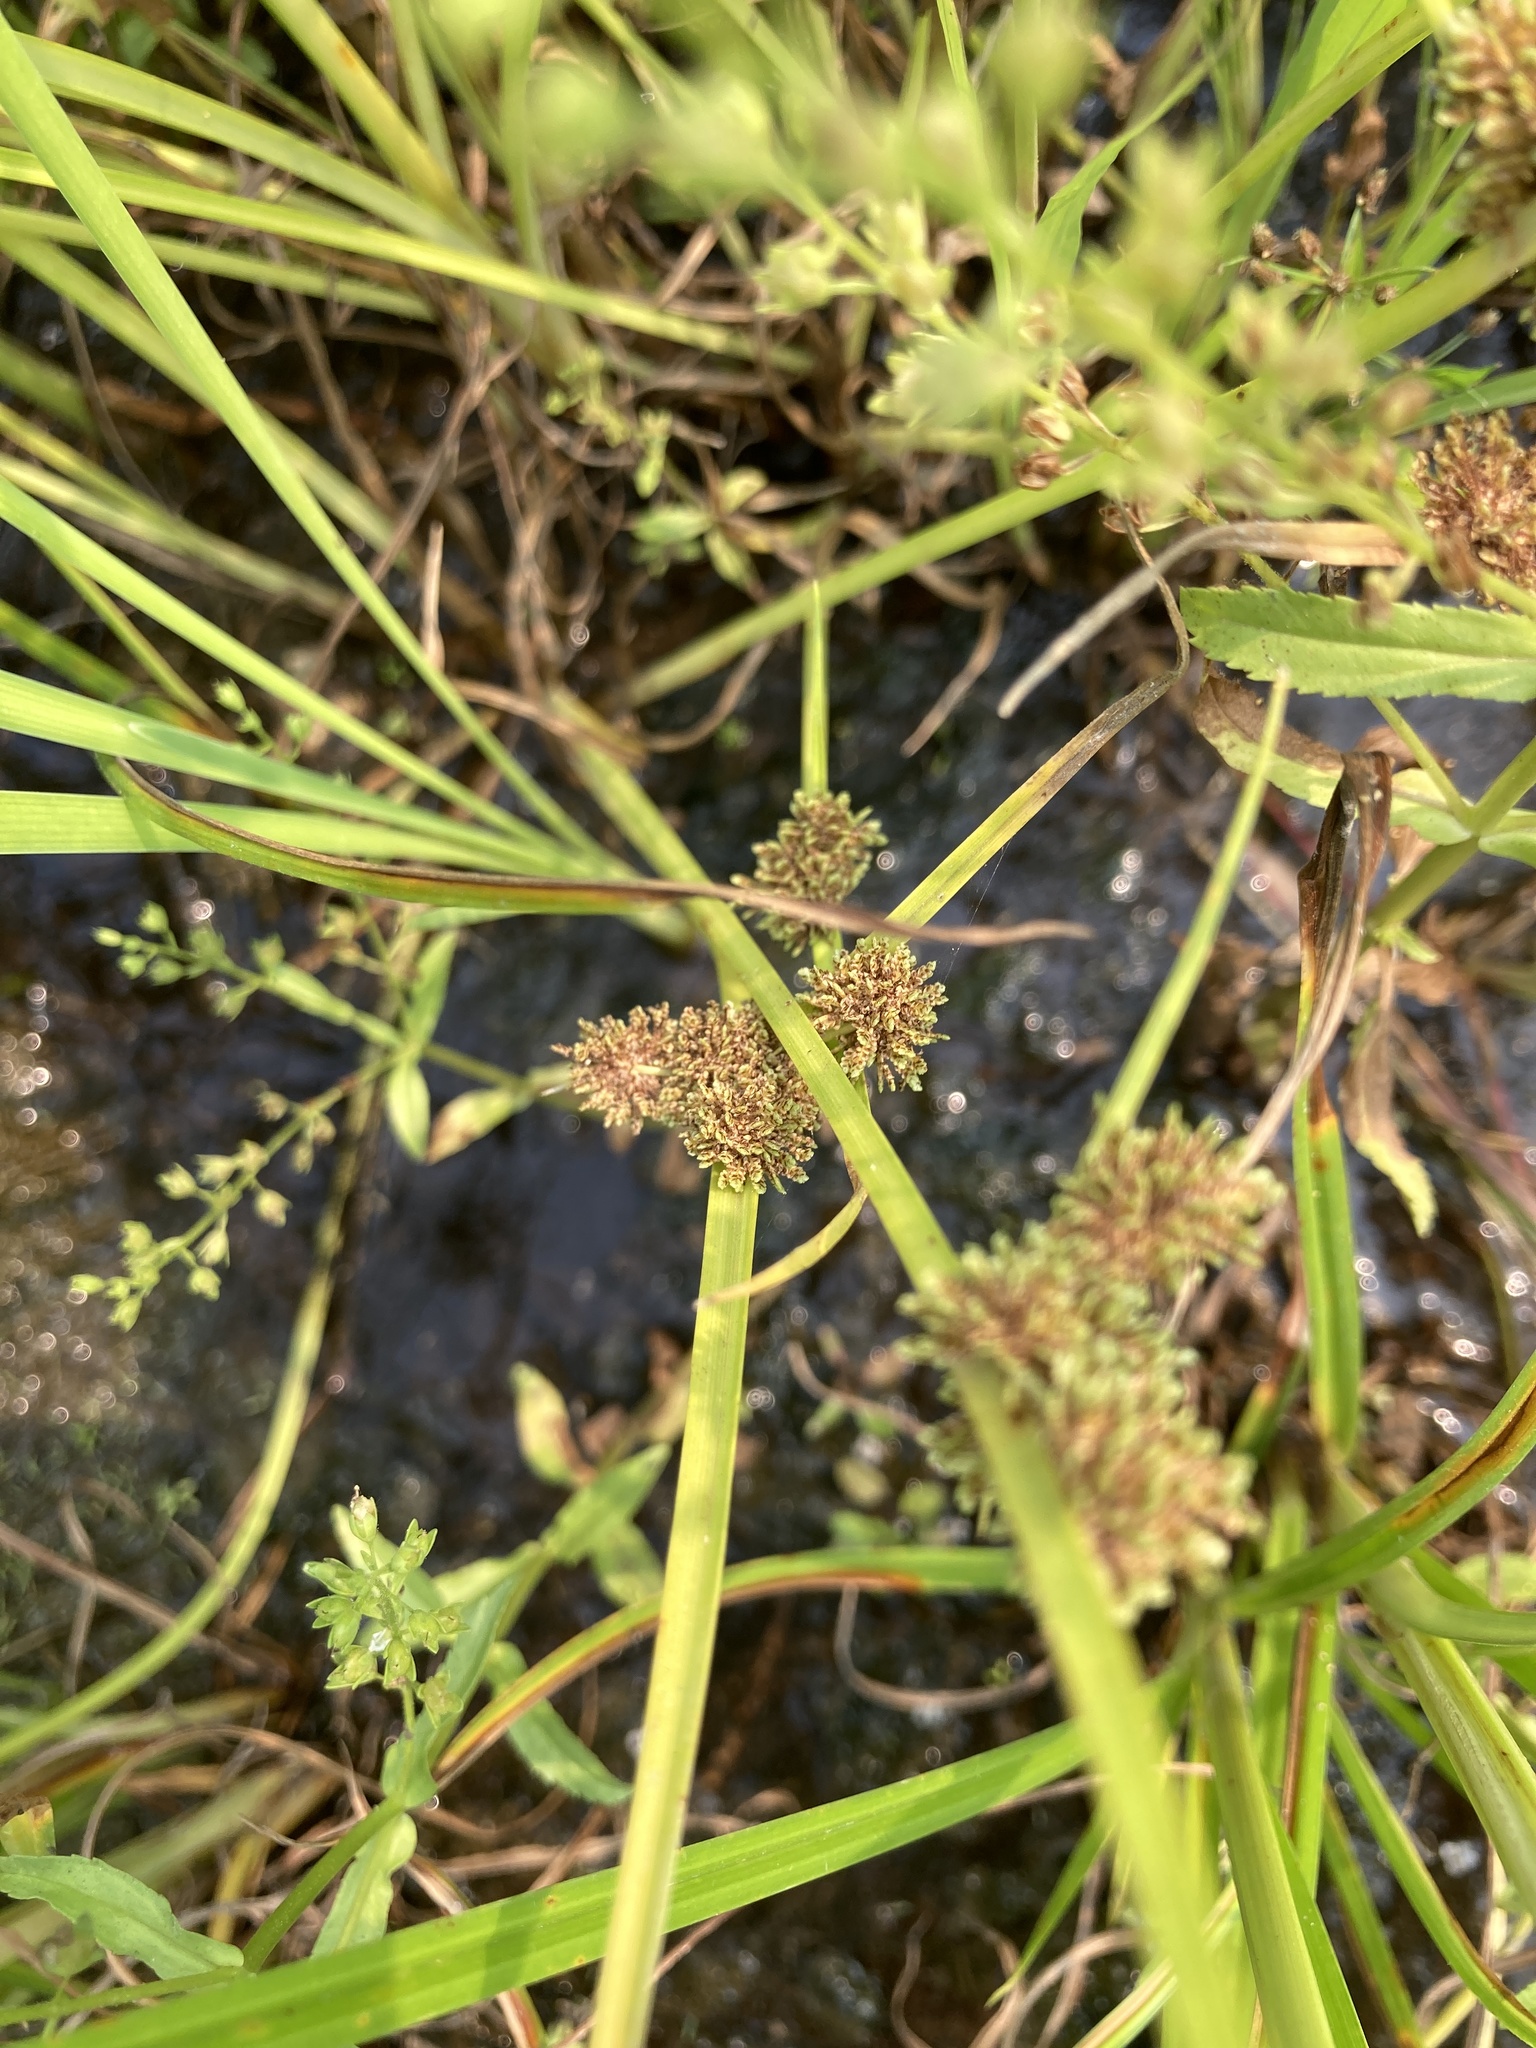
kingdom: Plantae
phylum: Tracheophyta
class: Liliopsida
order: Poales
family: Cyperaceae
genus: Cyperus
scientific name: Cyperus difformis
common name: Variable flatsedge
